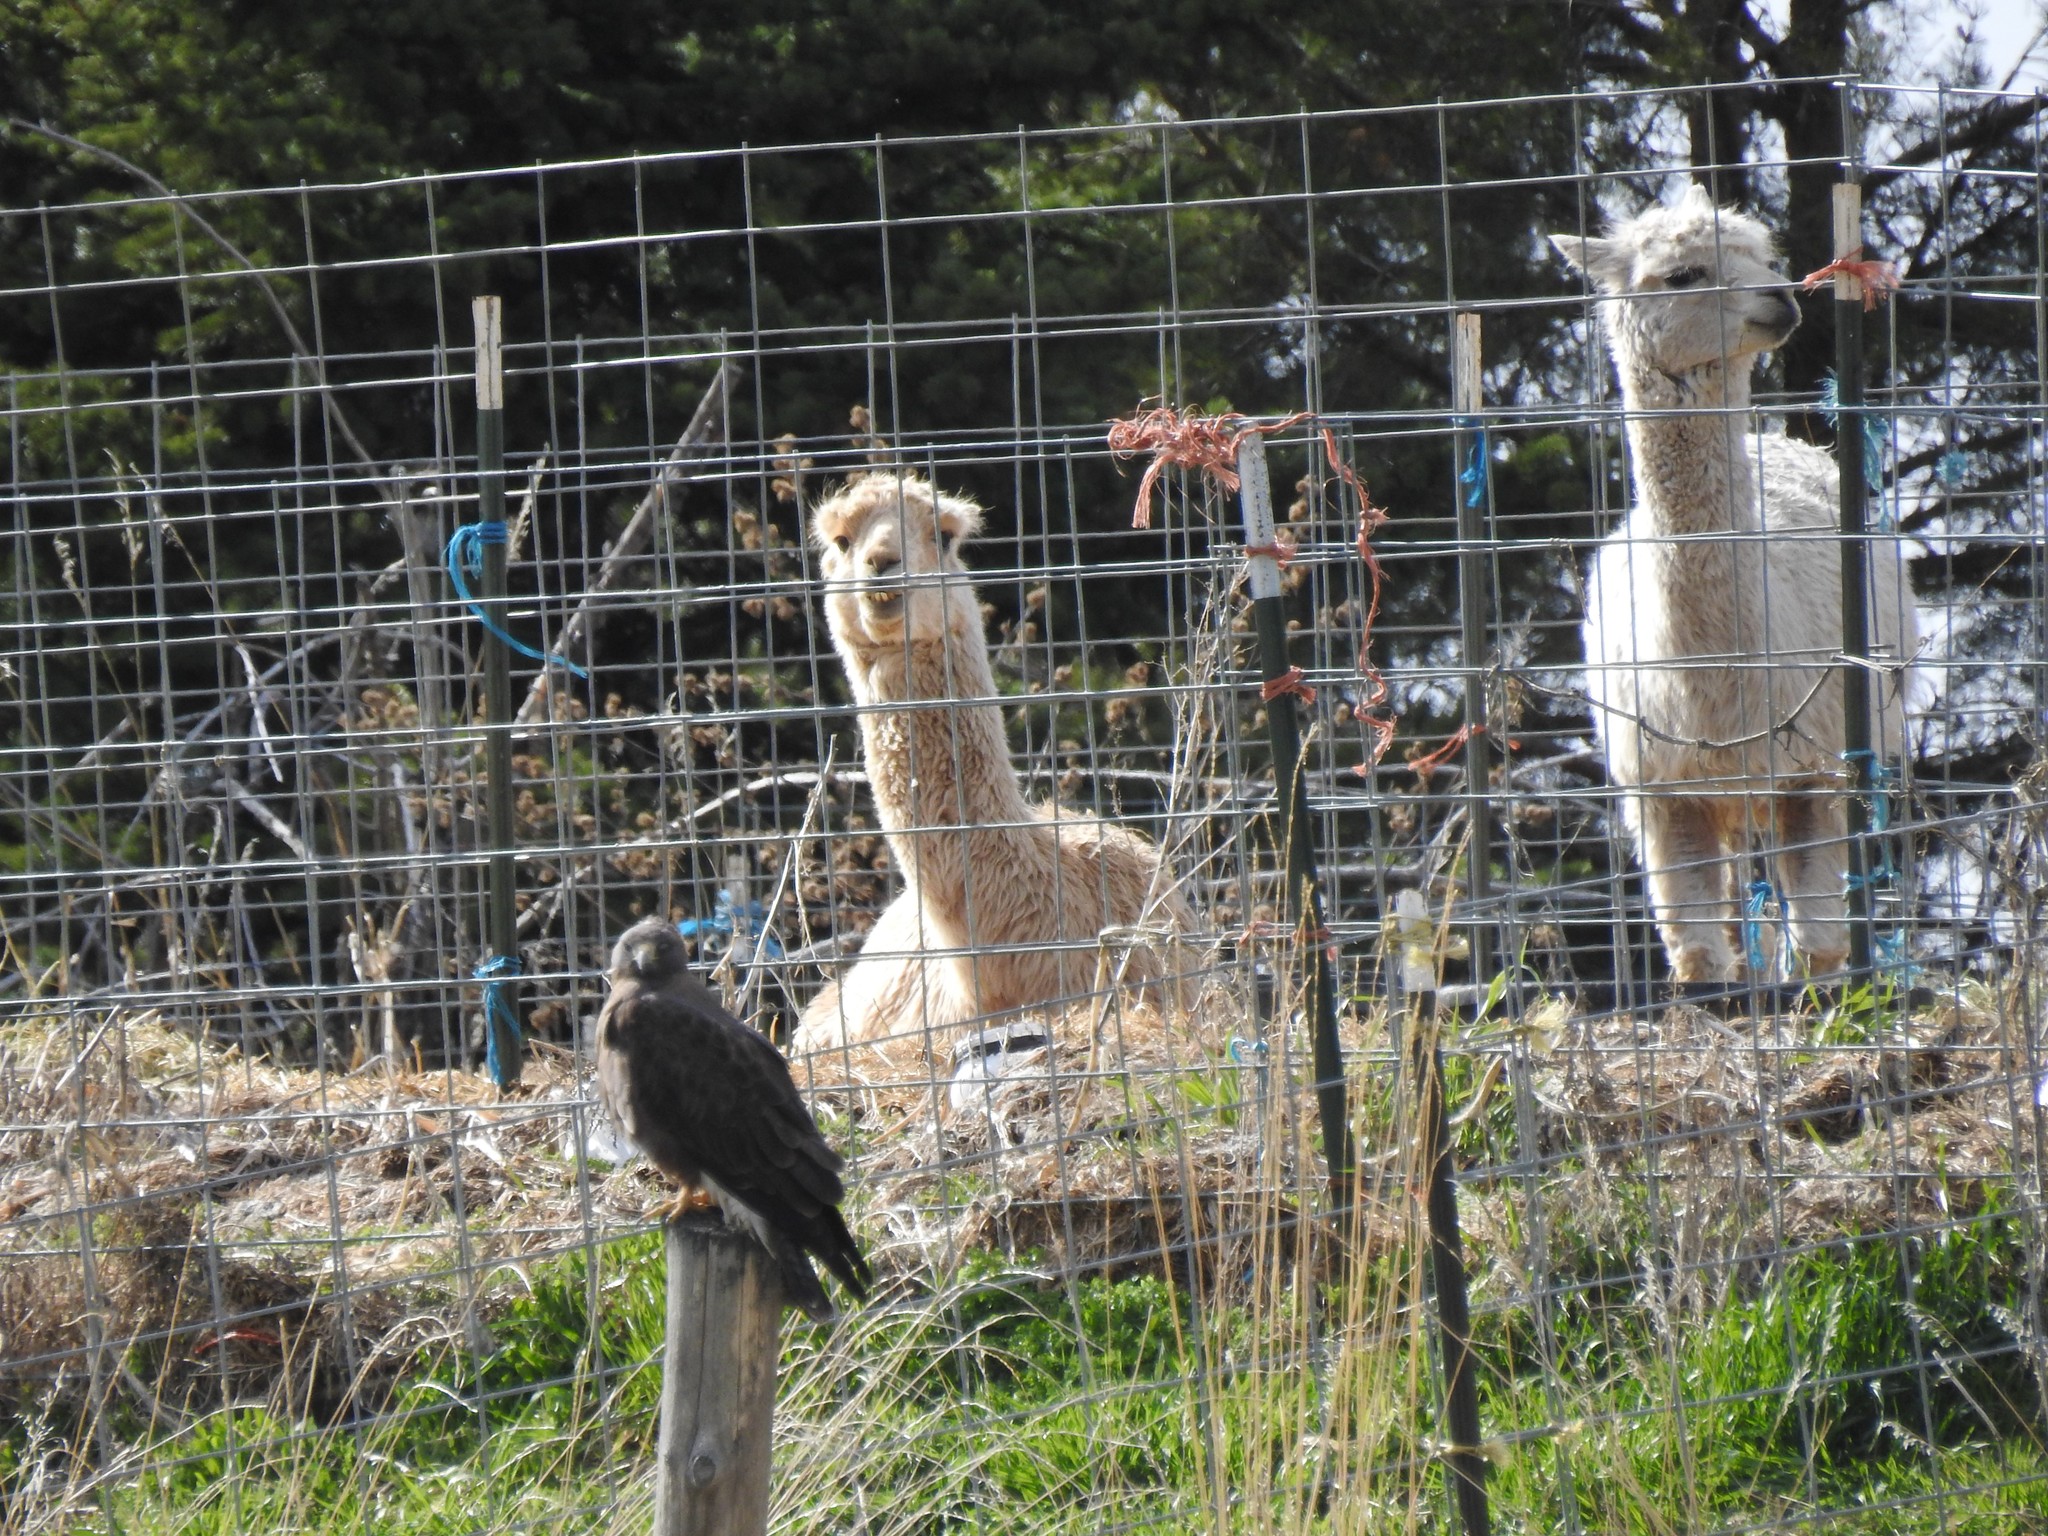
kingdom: Animalia
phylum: Chordata
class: Aves
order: Accipitriformes
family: Accipitridae
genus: Buteo
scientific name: Buteo swainsoni
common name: Swainson's hawk
